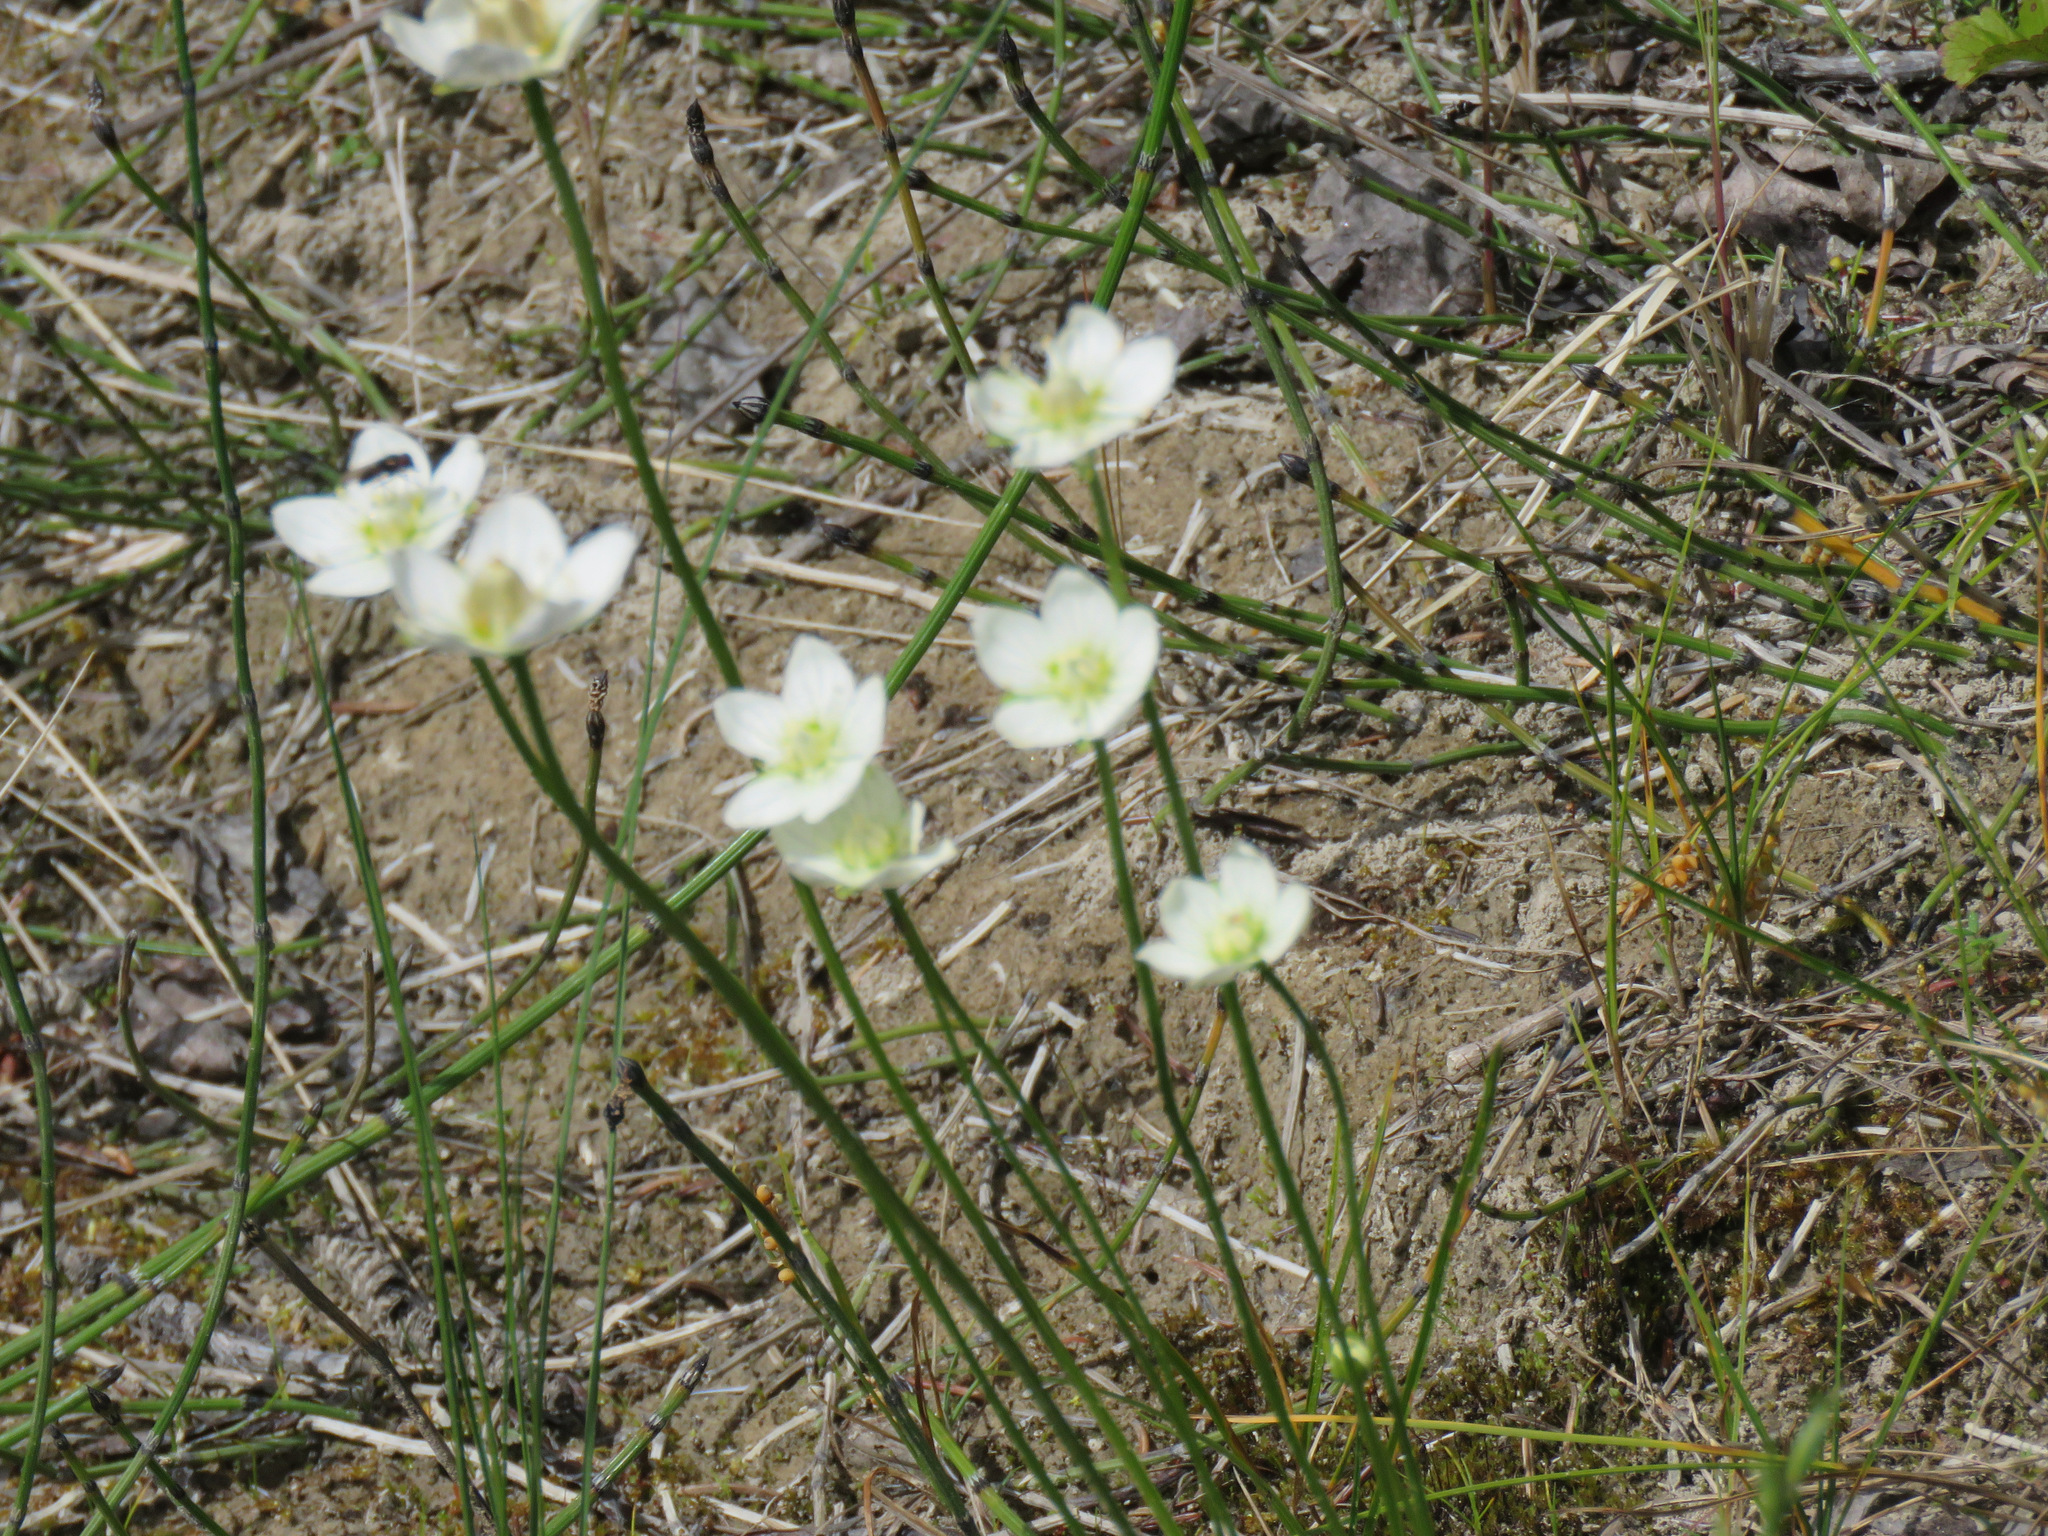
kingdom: Plantae
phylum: Tracheophyta
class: Magnoliopsida
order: Celastrales
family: Parnassiaceae
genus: Parnassia
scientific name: Parnassia palustris
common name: Grass-of-parnassus
